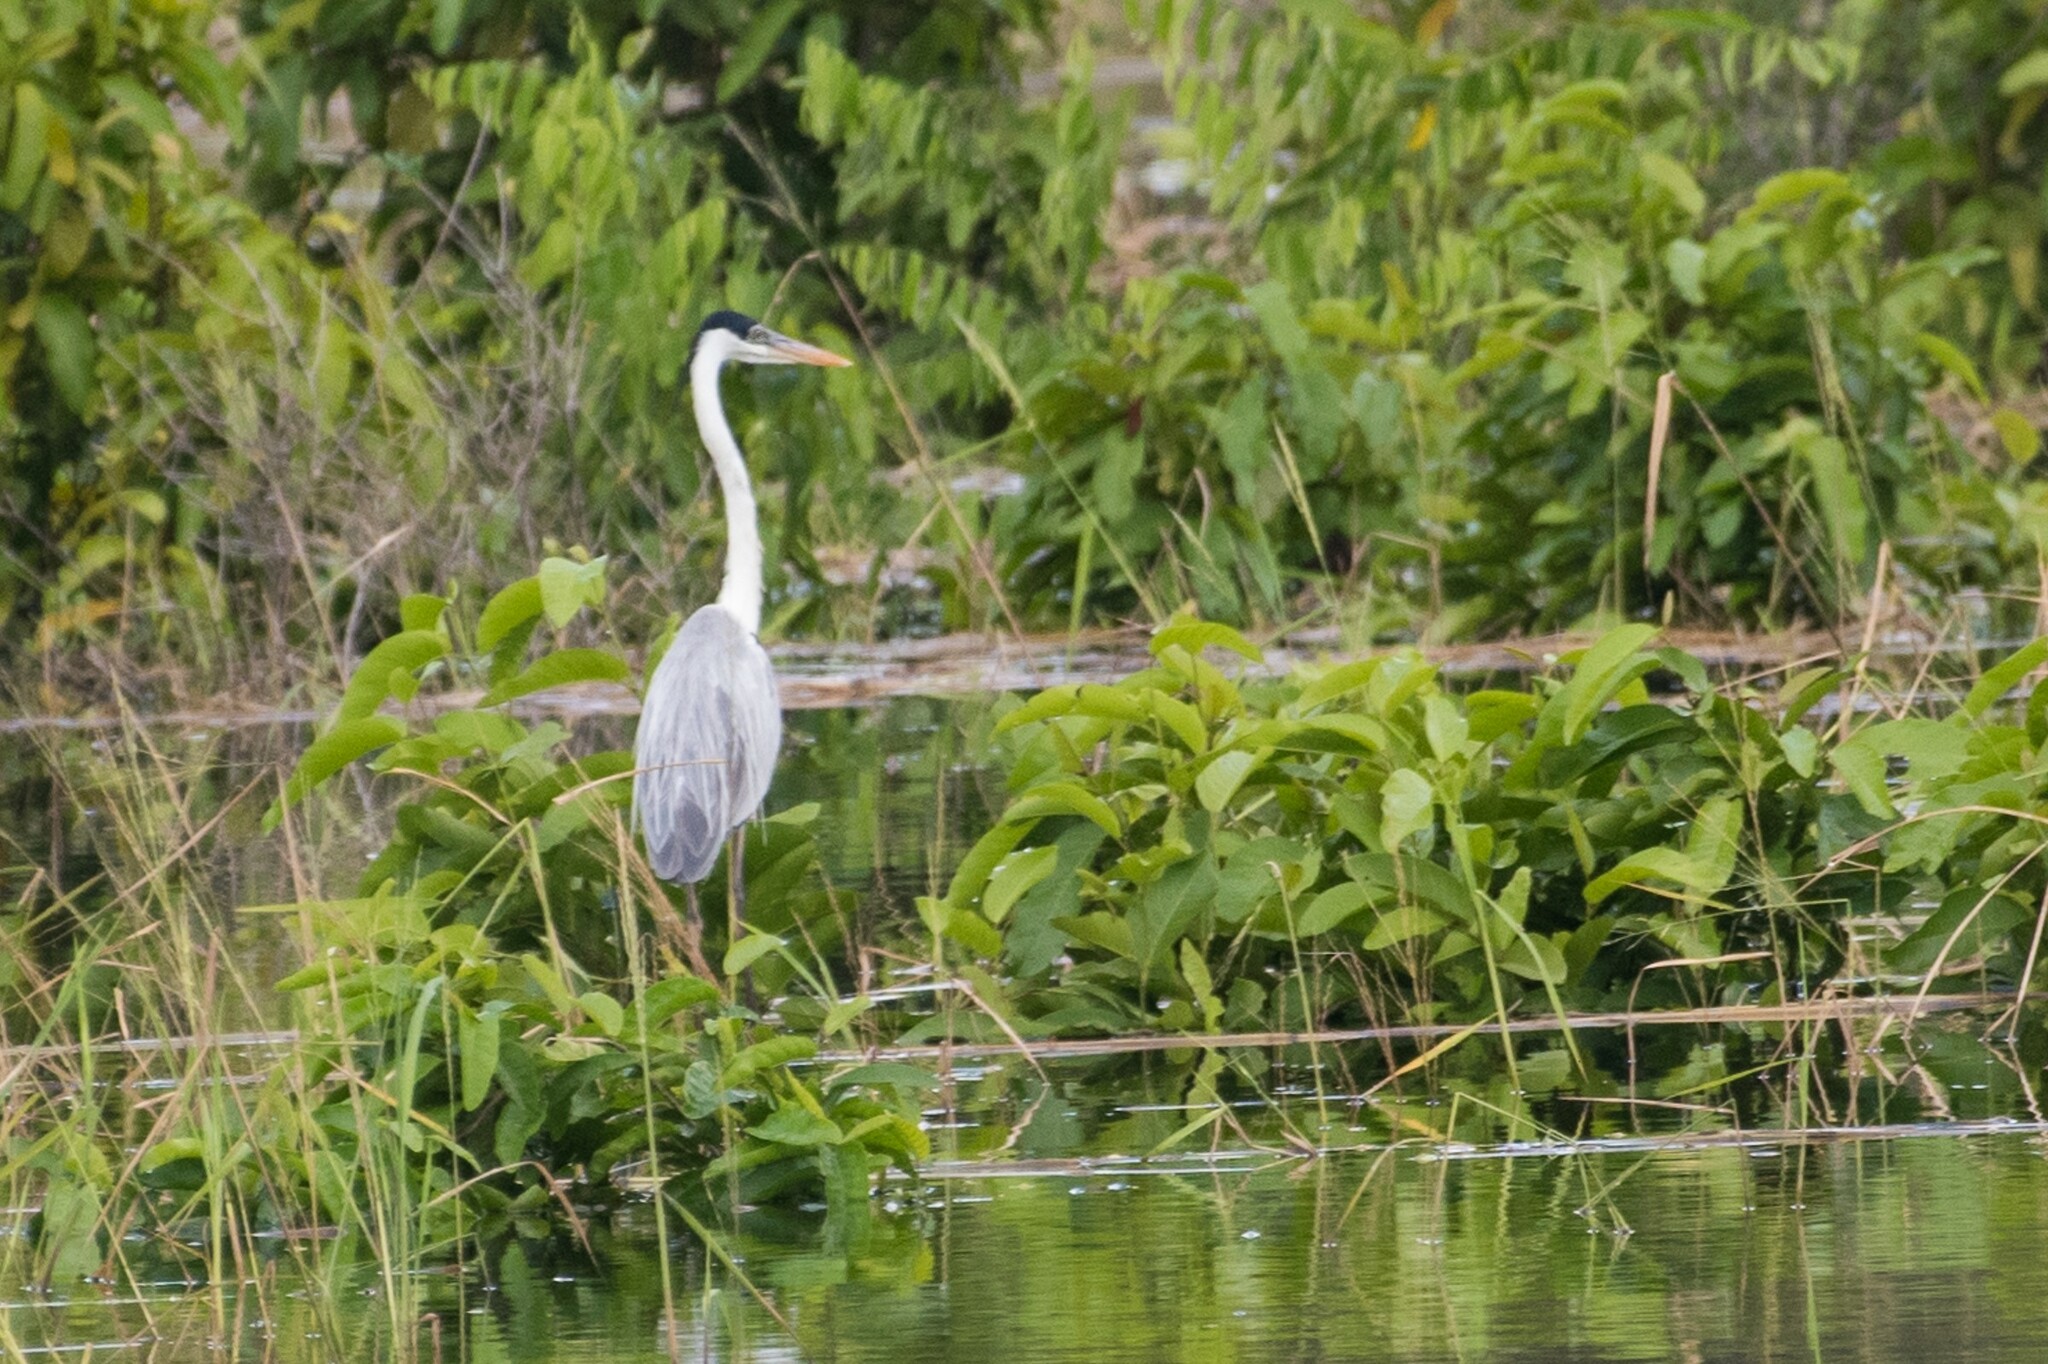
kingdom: Animalia
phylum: Chordata
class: Aves
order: Pelecaniformes
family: Ardeidae
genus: Ardea
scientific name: Ardea cocoi
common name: Cocoi heron
